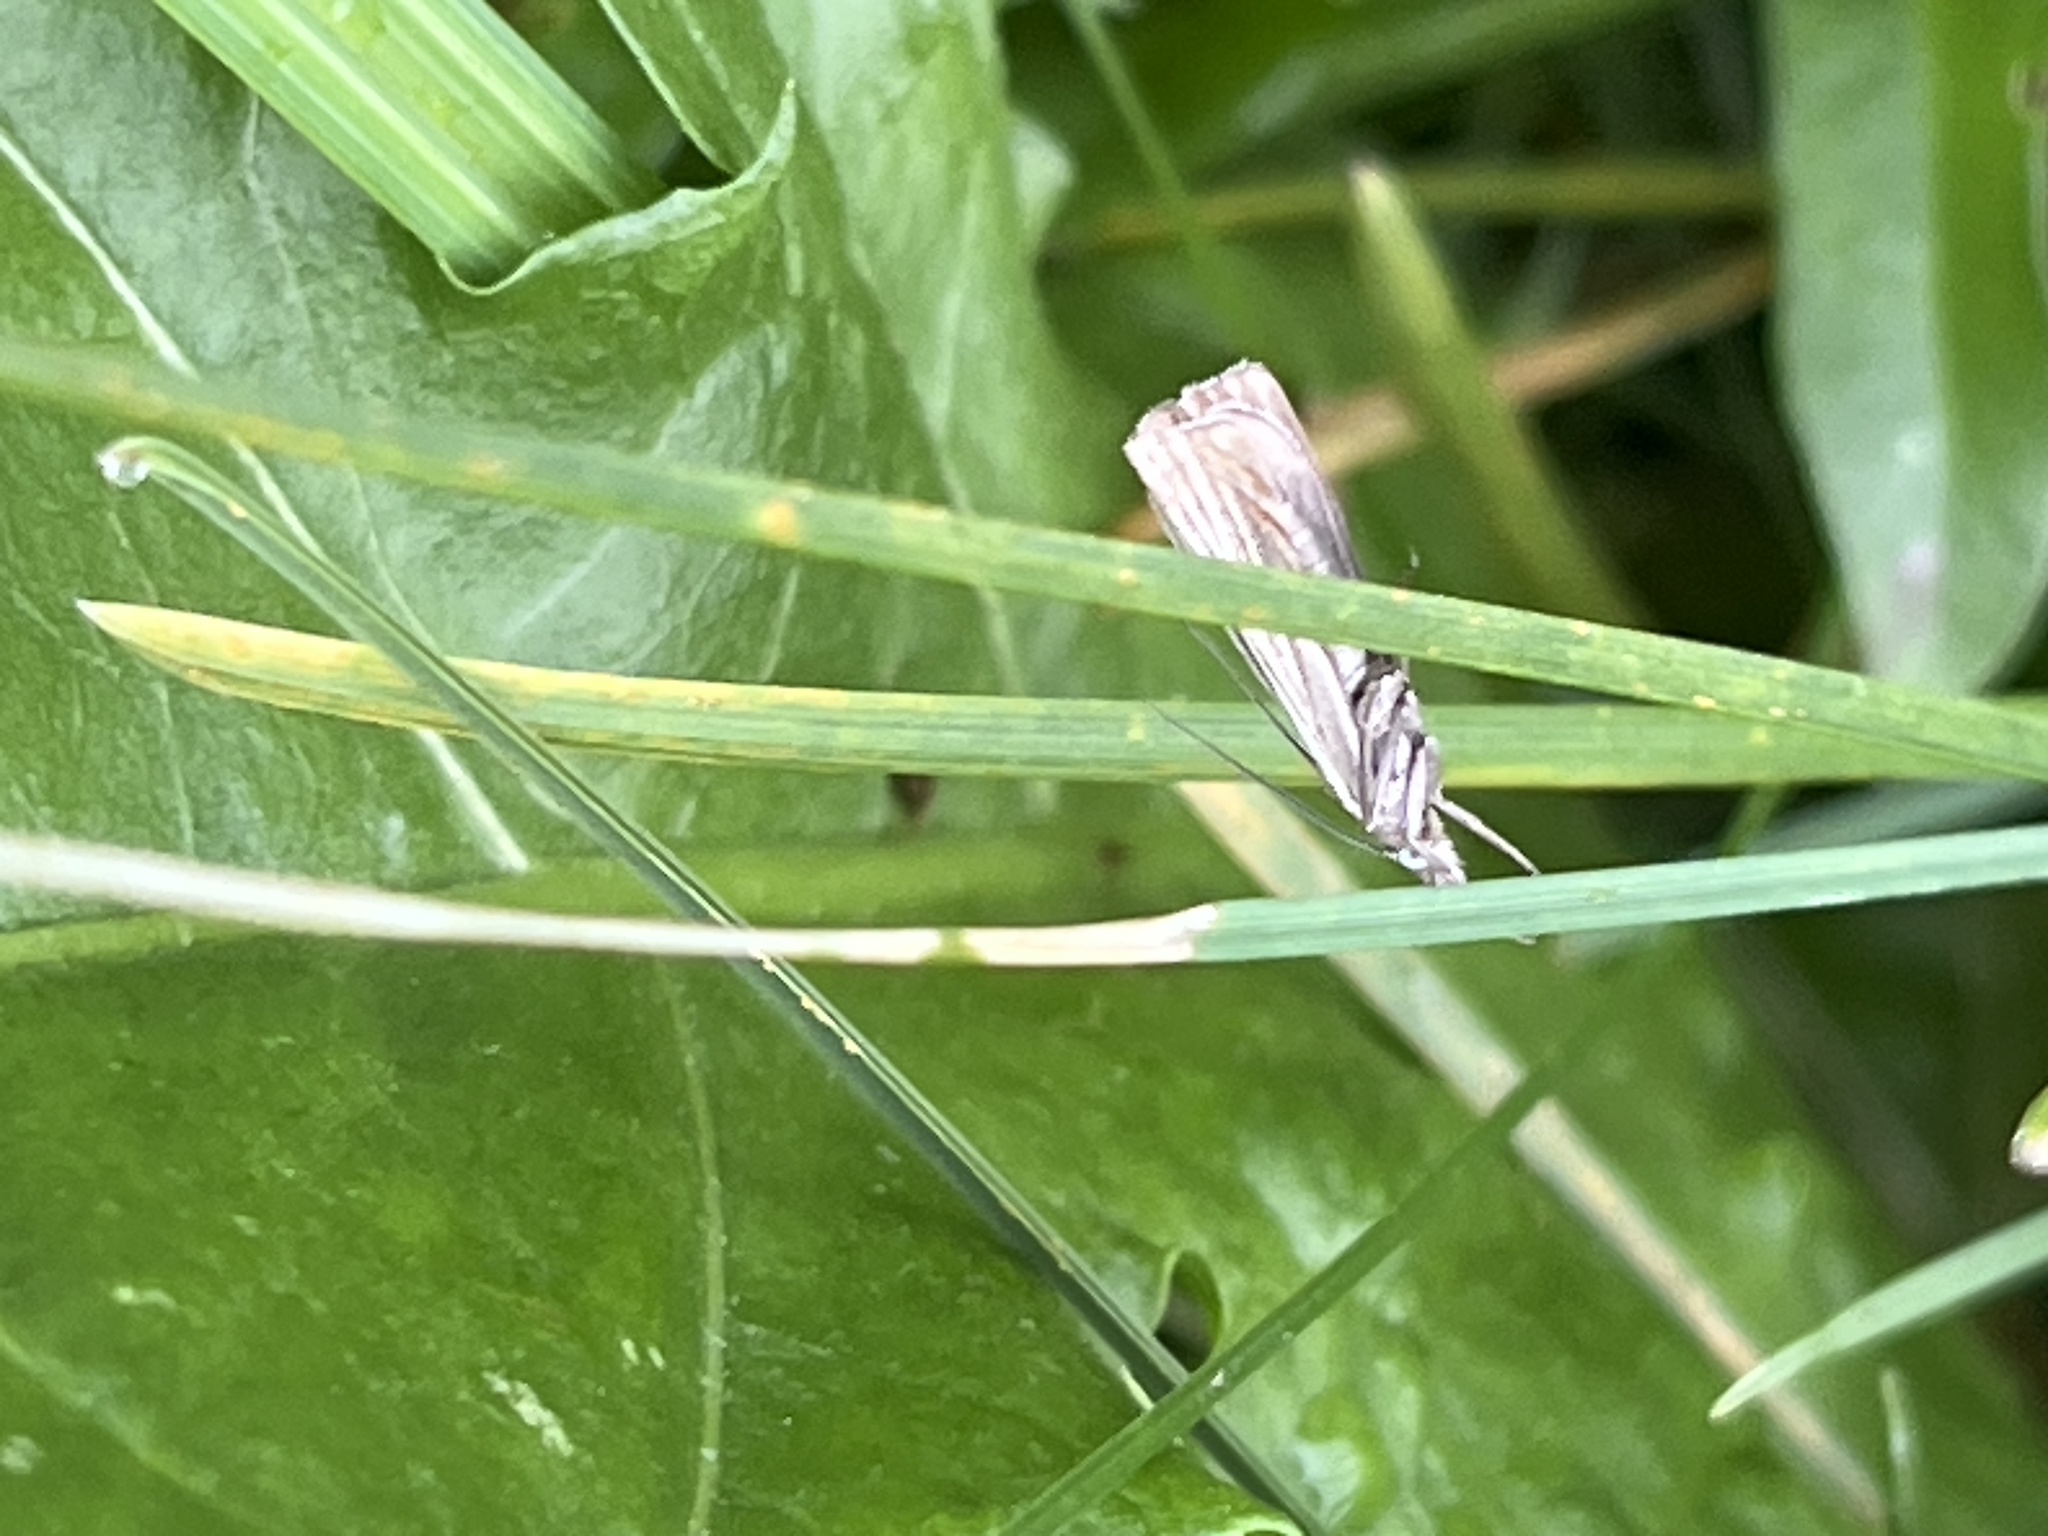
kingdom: Animalia
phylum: Arthropoda
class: Insecta
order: Lepidoptera
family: Crambidae
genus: Chrysoteuchia
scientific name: Chrysoteuchia culmella
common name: Garden grass-veneer
